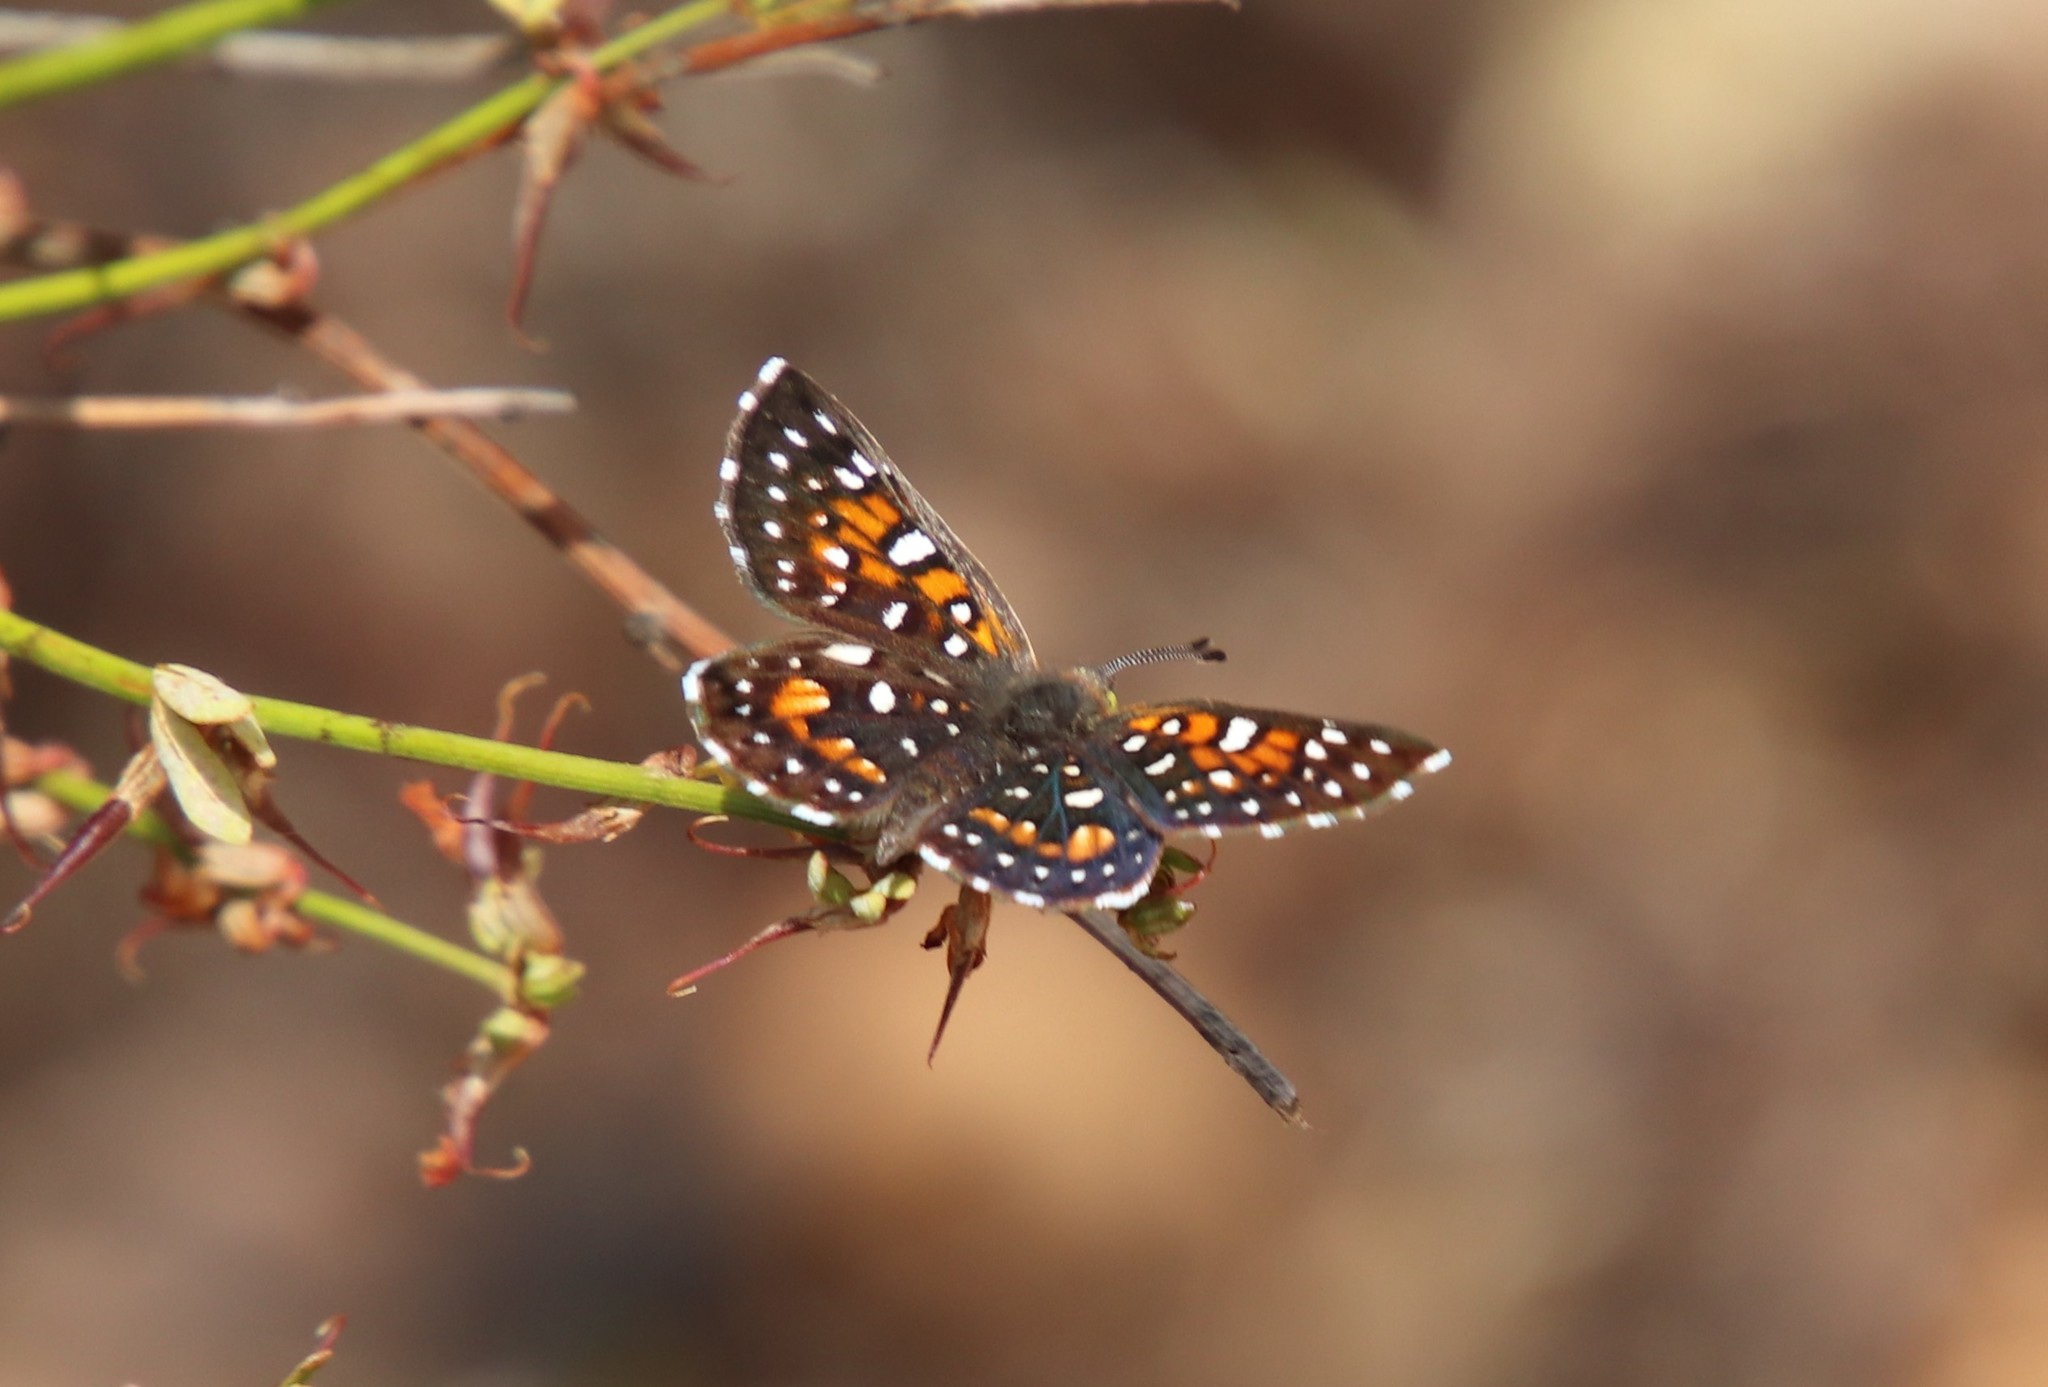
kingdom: Animalia
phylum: Arthropoda
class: Insecta
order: Lepidoptera
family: Riodinidae
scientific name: Riodinidae
